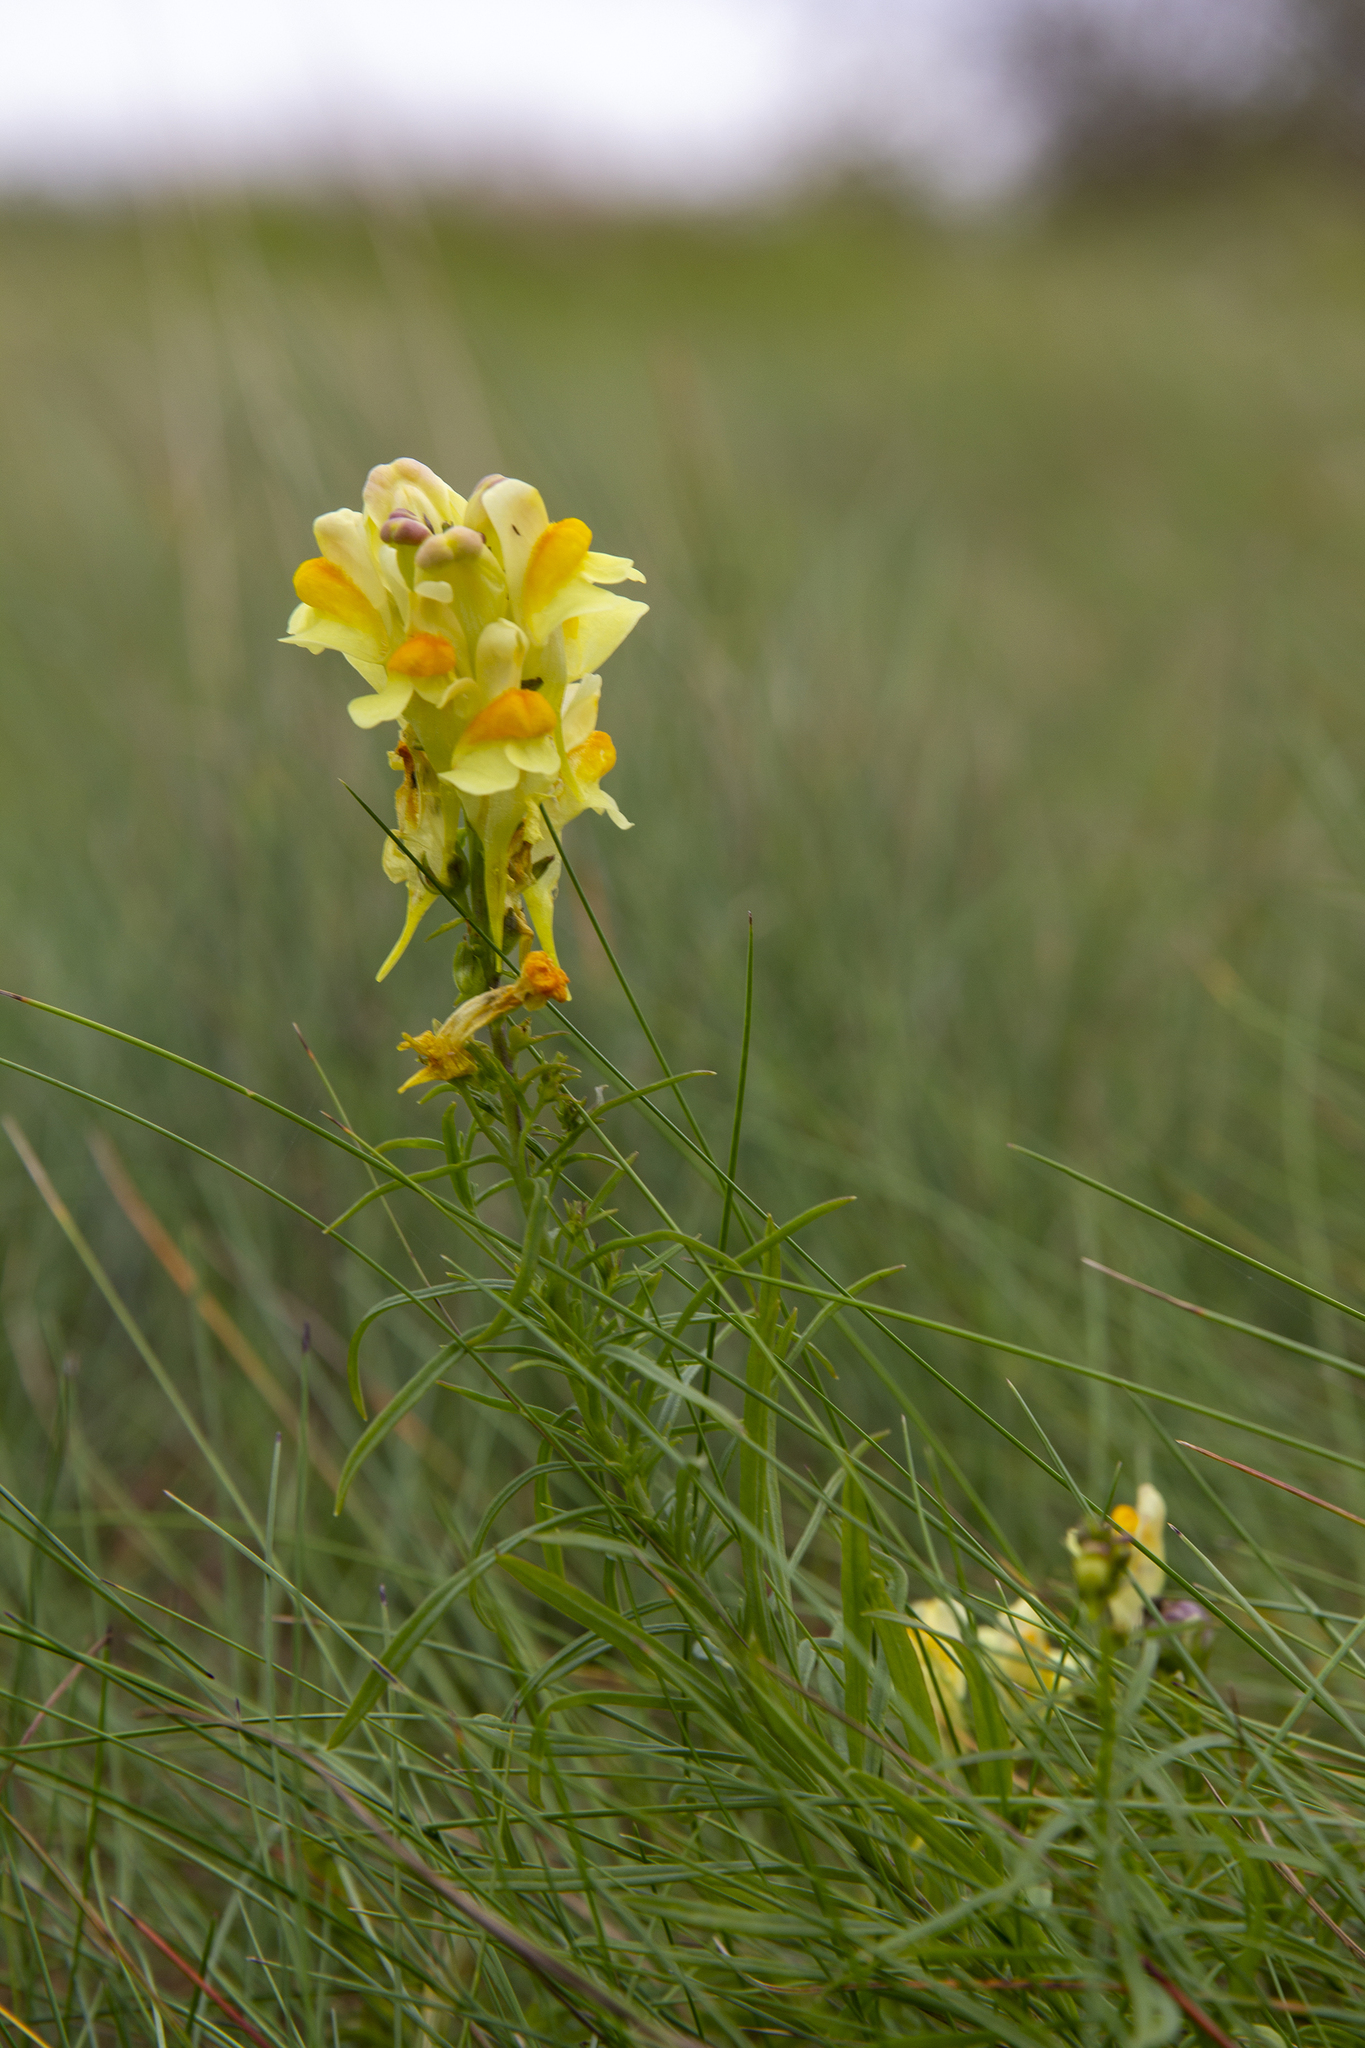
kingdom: Plantae
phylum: Tracheophyta
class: Magnoliopsida
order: Lamiales
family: Plantaginaceae
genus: Linaria
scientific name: Linaria vulgaris
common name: Butter and eggs
